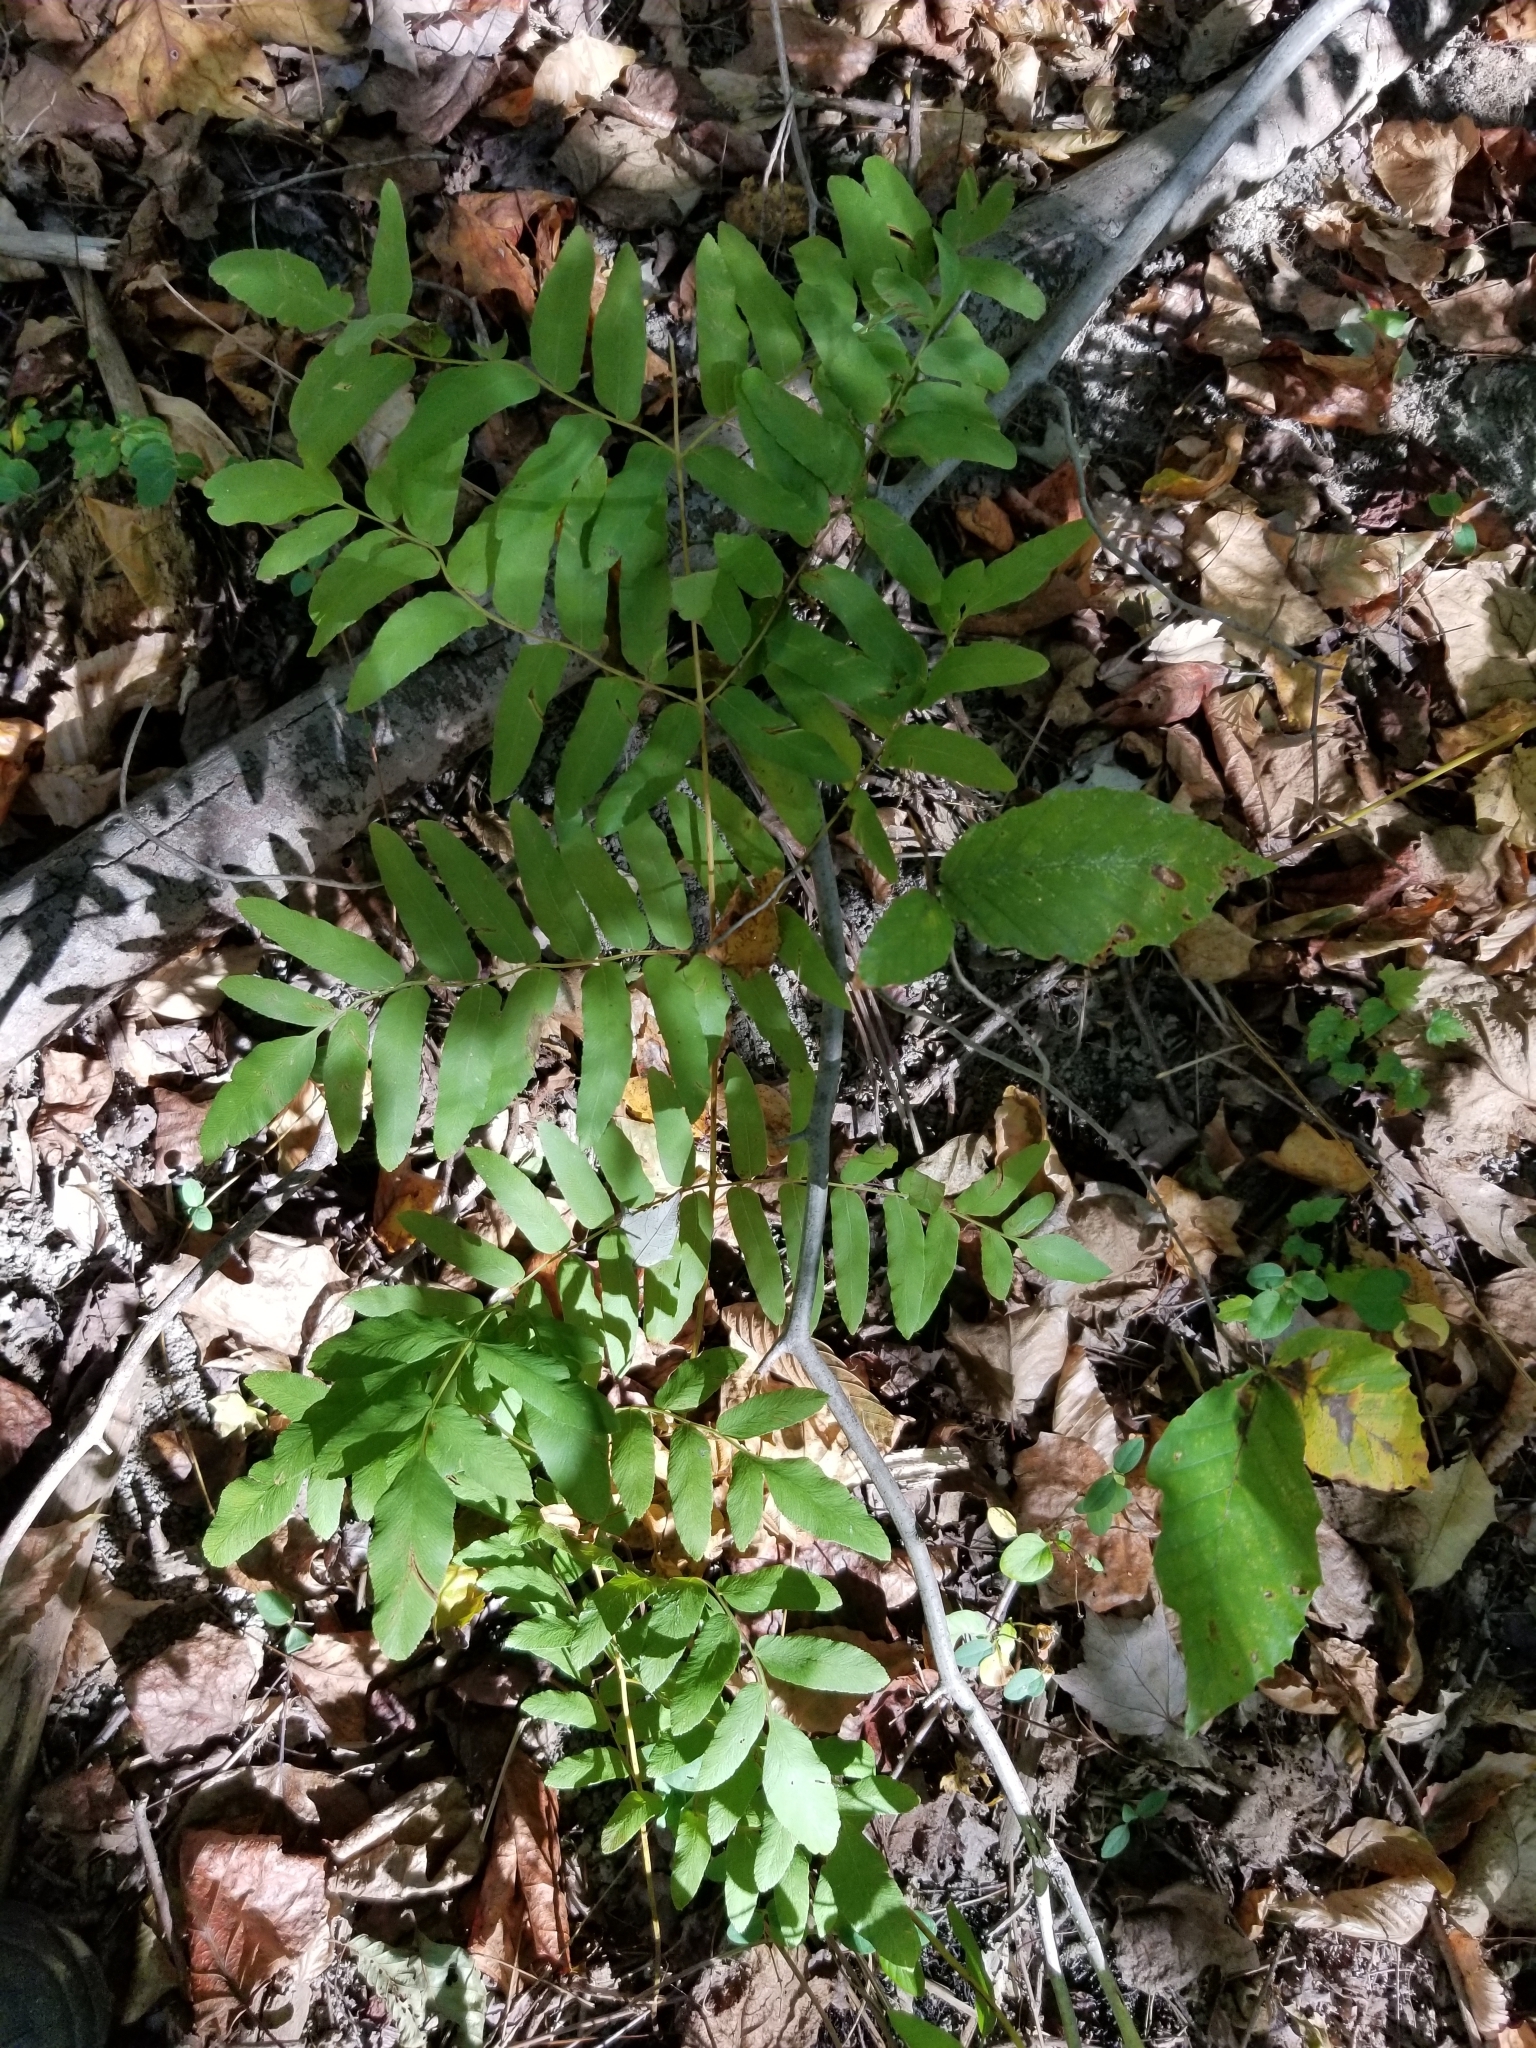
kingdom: Plantae
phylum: Tracheophyta
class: Polypodiopsida
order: Osmundales
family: Osmundaceae
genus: Osmunda
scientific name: Osmunda spectabilis
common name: American royal fern
